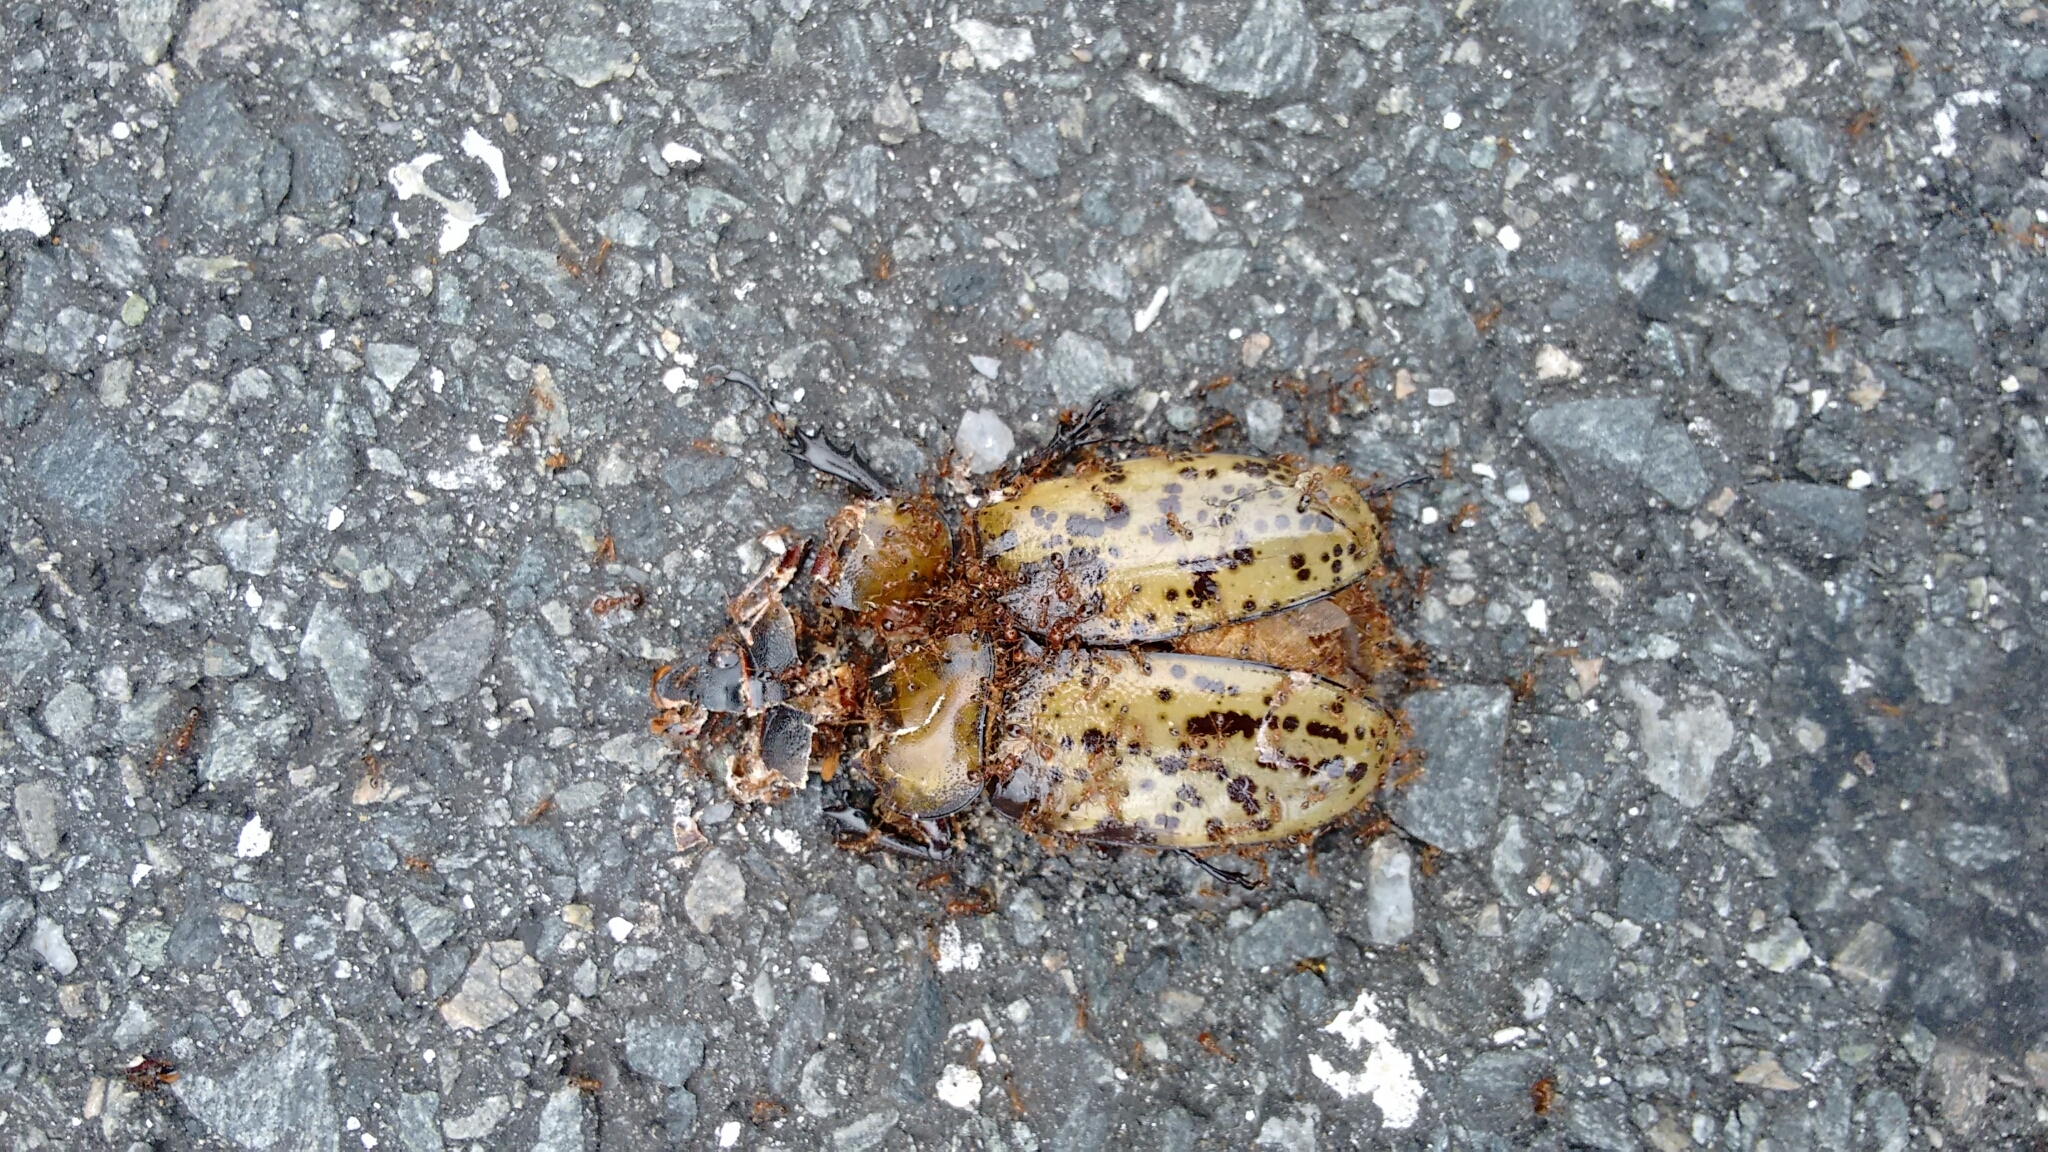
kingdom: Animalia
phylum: Arthropoda
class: Insecta
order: Coleoptera
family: Scarabaeidae
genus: Dynastes
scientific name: Dynastes tityus
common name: Eastern hercules beetle
